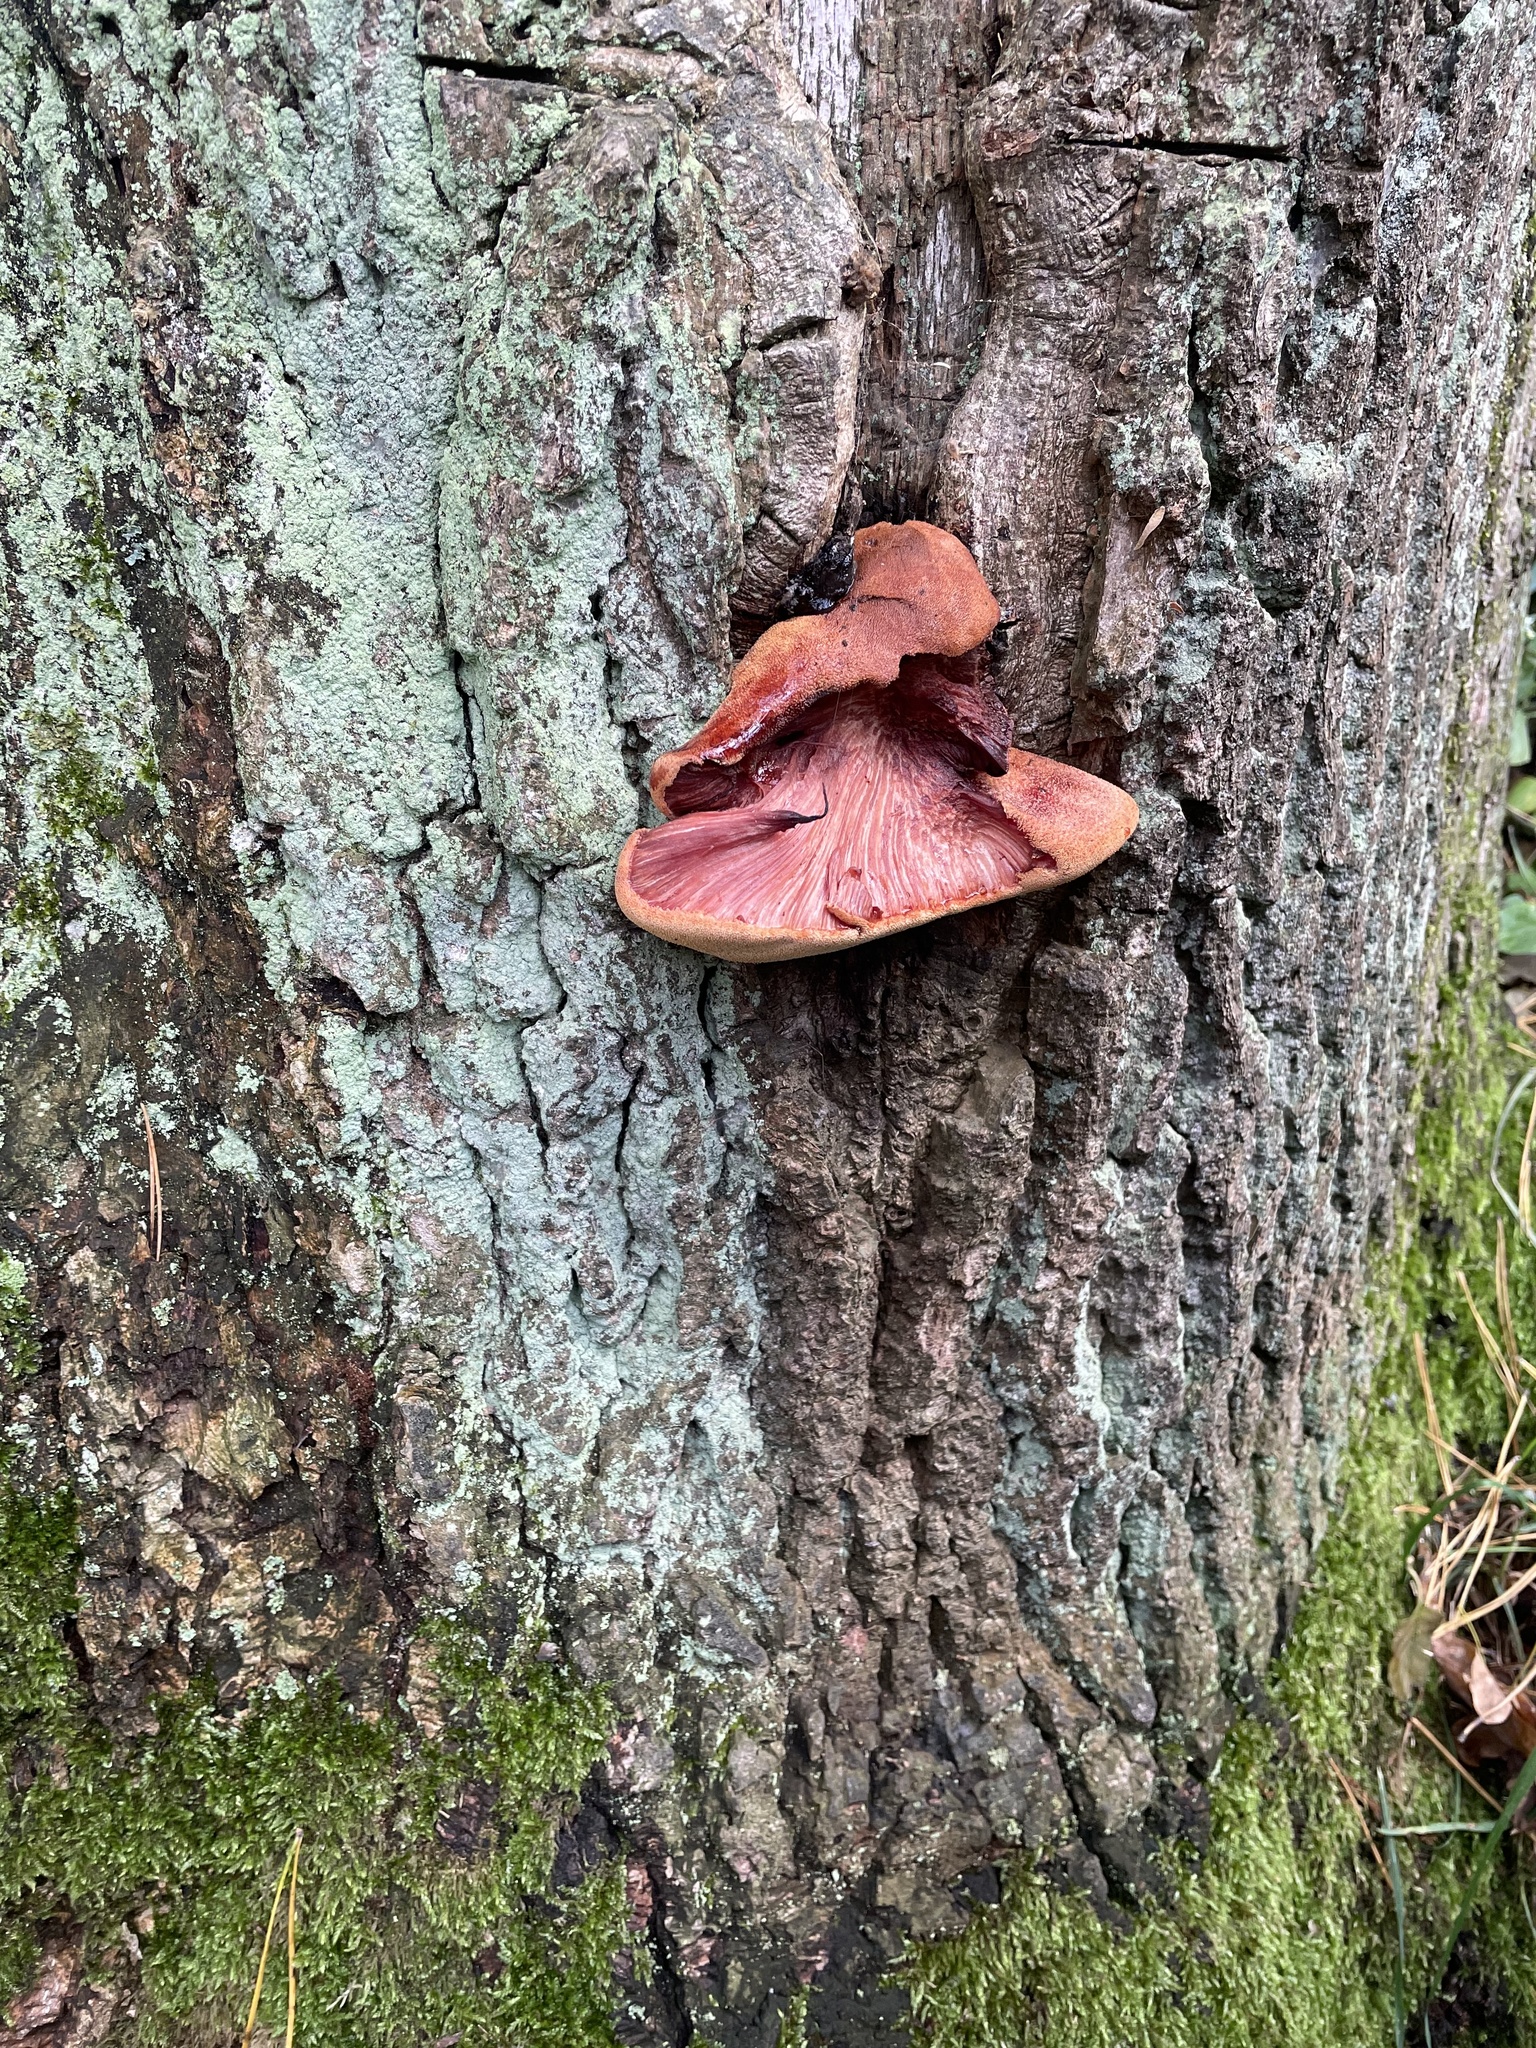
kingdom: Fungi
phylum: Basidiomycota
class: Agaricomycetes
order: Agaricales
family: Fistulinaceae
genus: Fistulina
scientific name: Fistulina hepatica
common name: Beef-steak fungus
